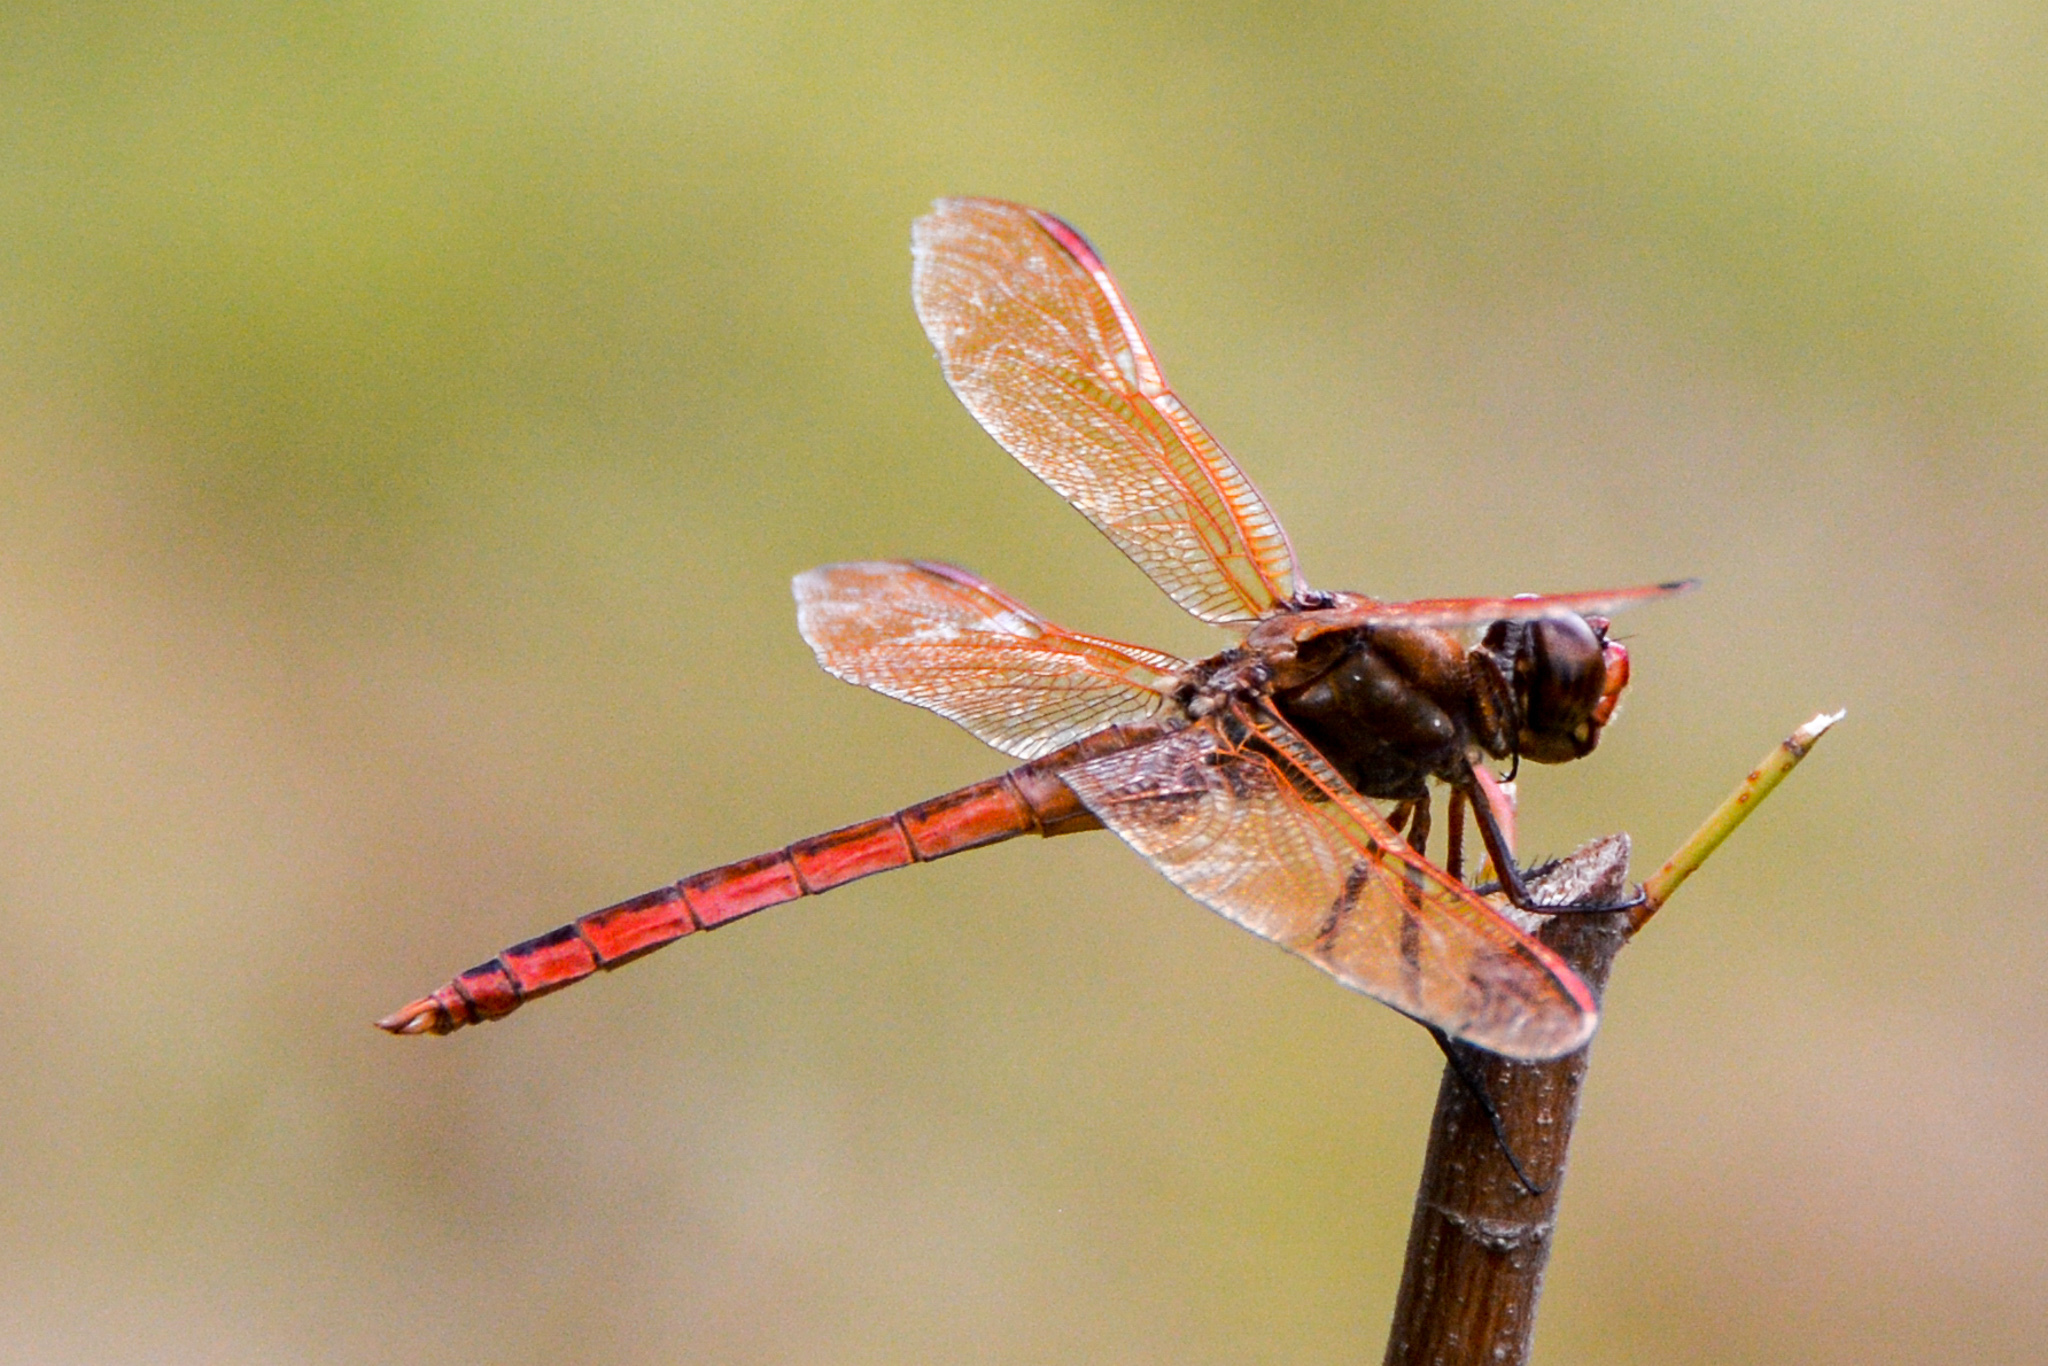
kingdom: Animalia
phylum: Arthropoda
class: Insecta
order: Odonata
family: Libellulidae
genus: Libellula
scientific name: Libellula auripennis
